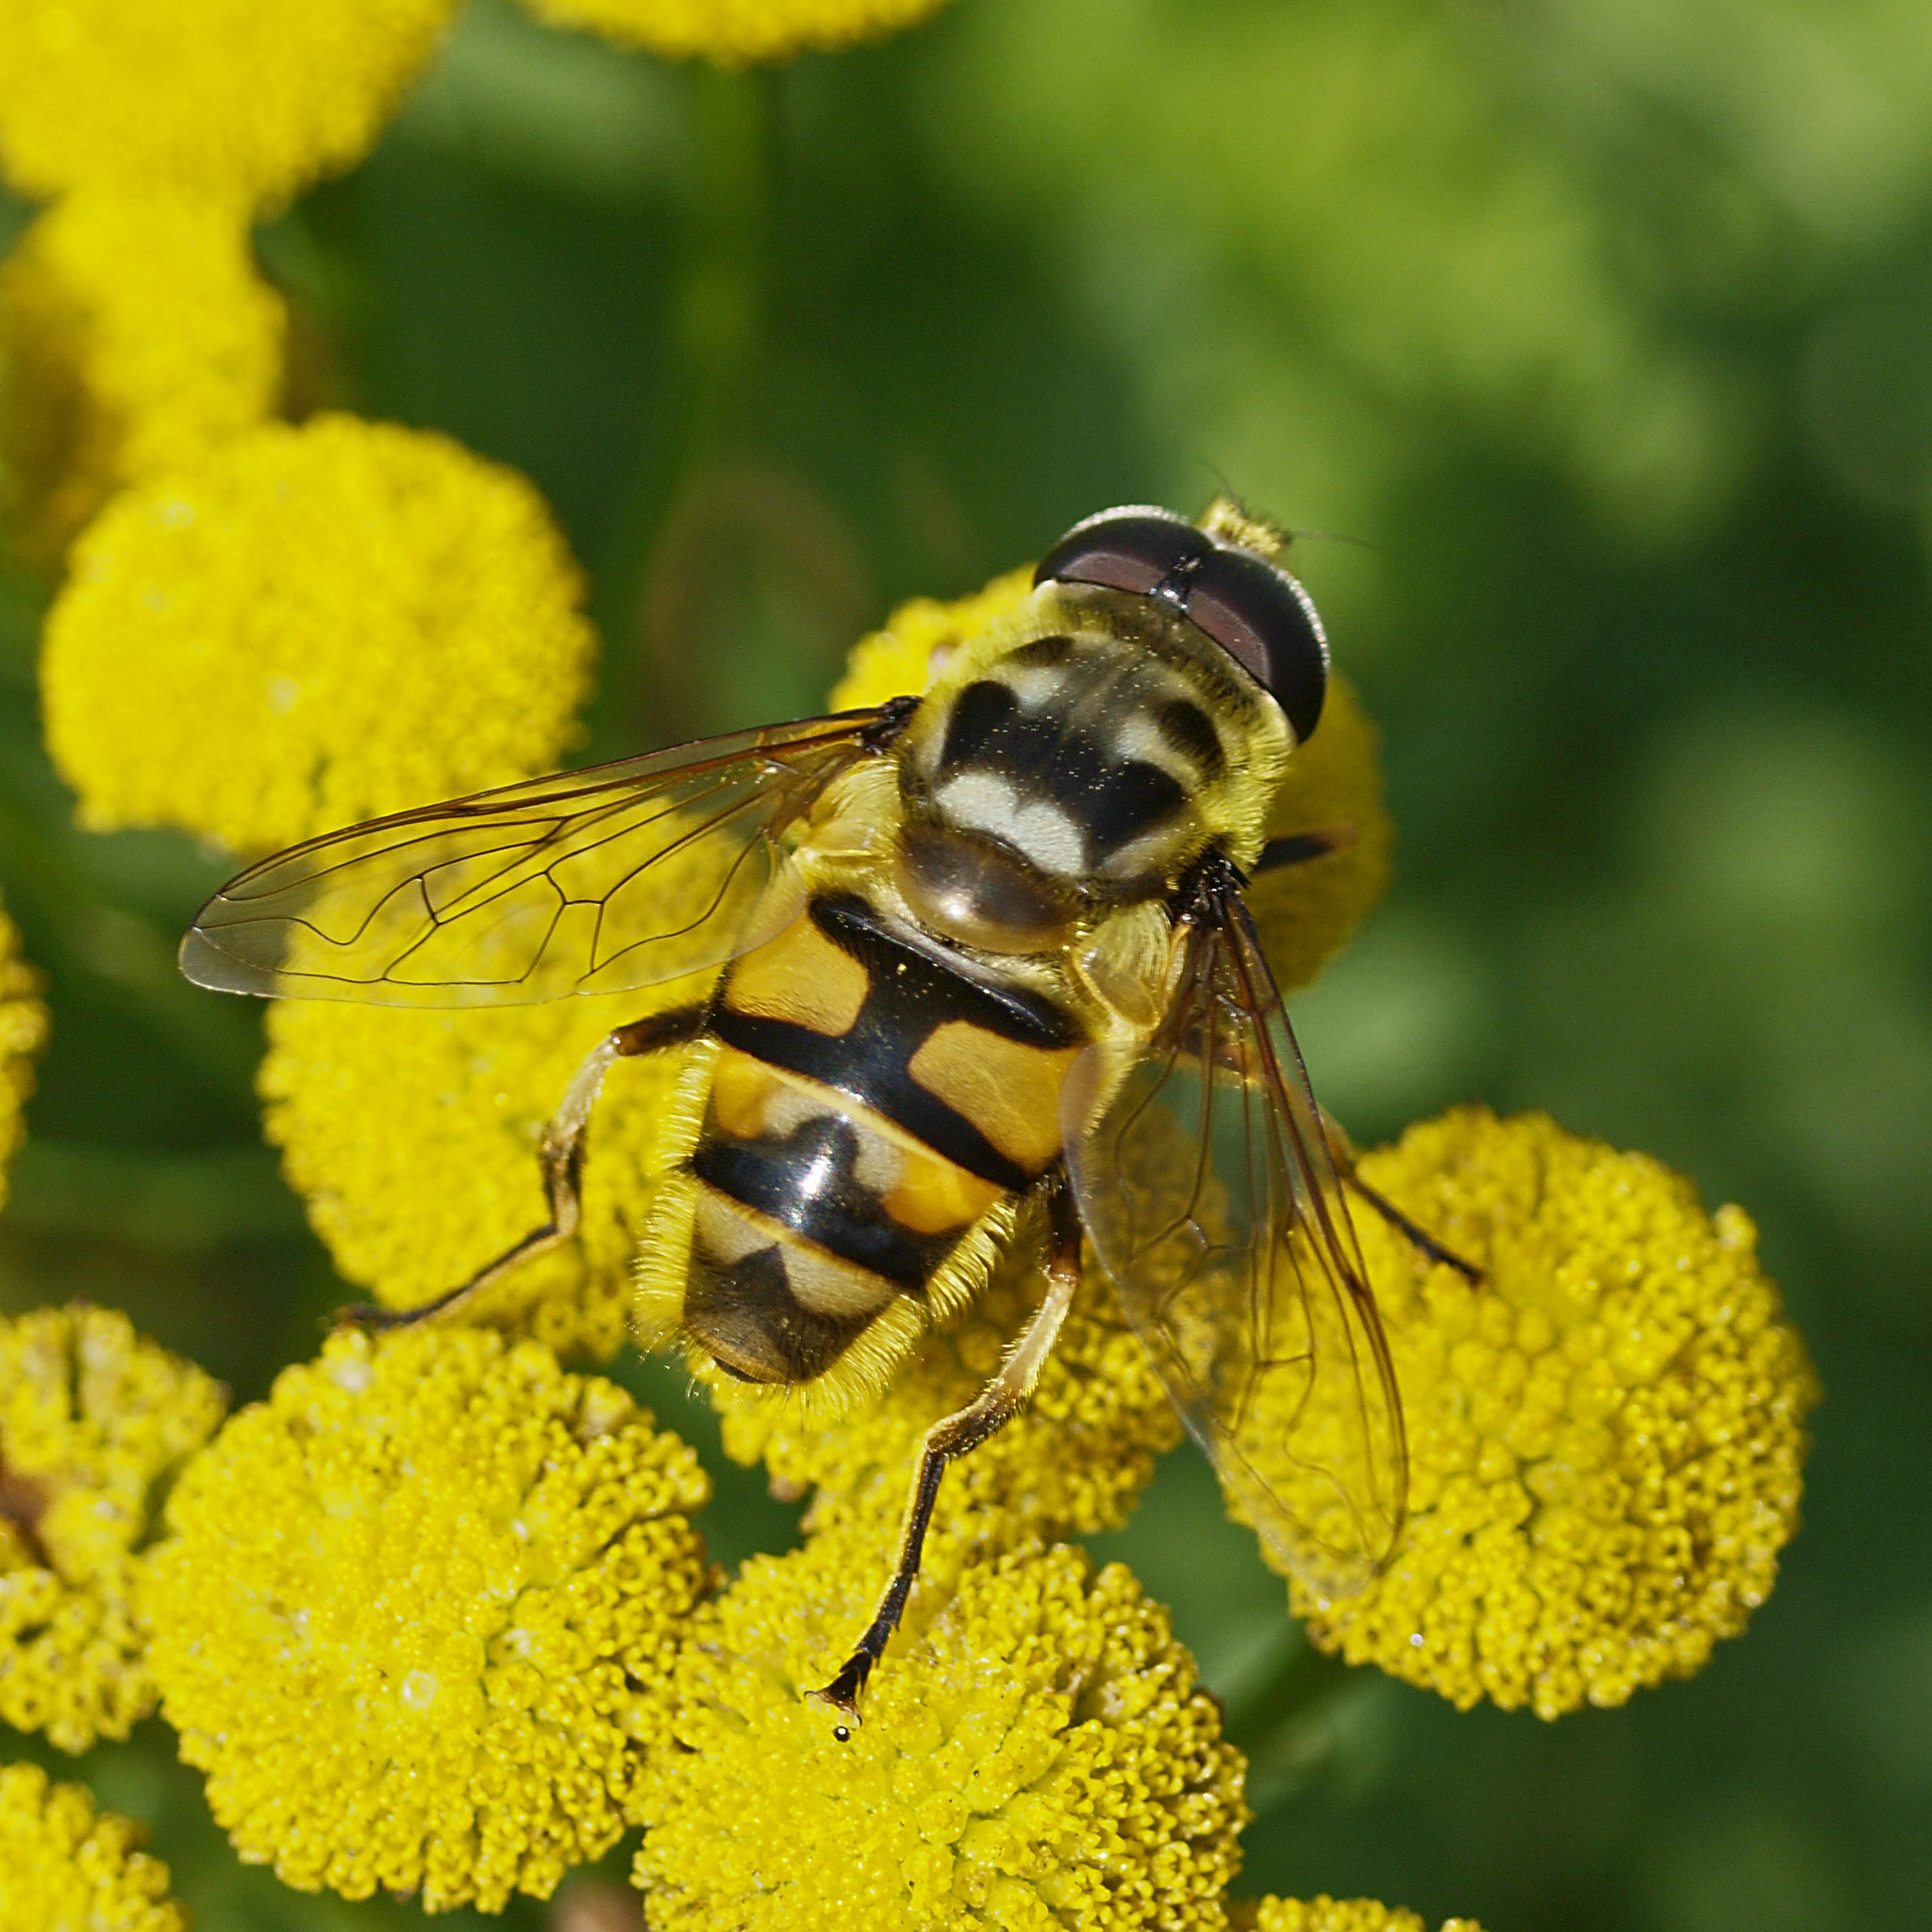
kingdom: Animalia
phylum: Arthropoda
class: Insecta
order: Diptera
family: Syrphidae
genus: Myathropa
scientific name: Myathropa florea
